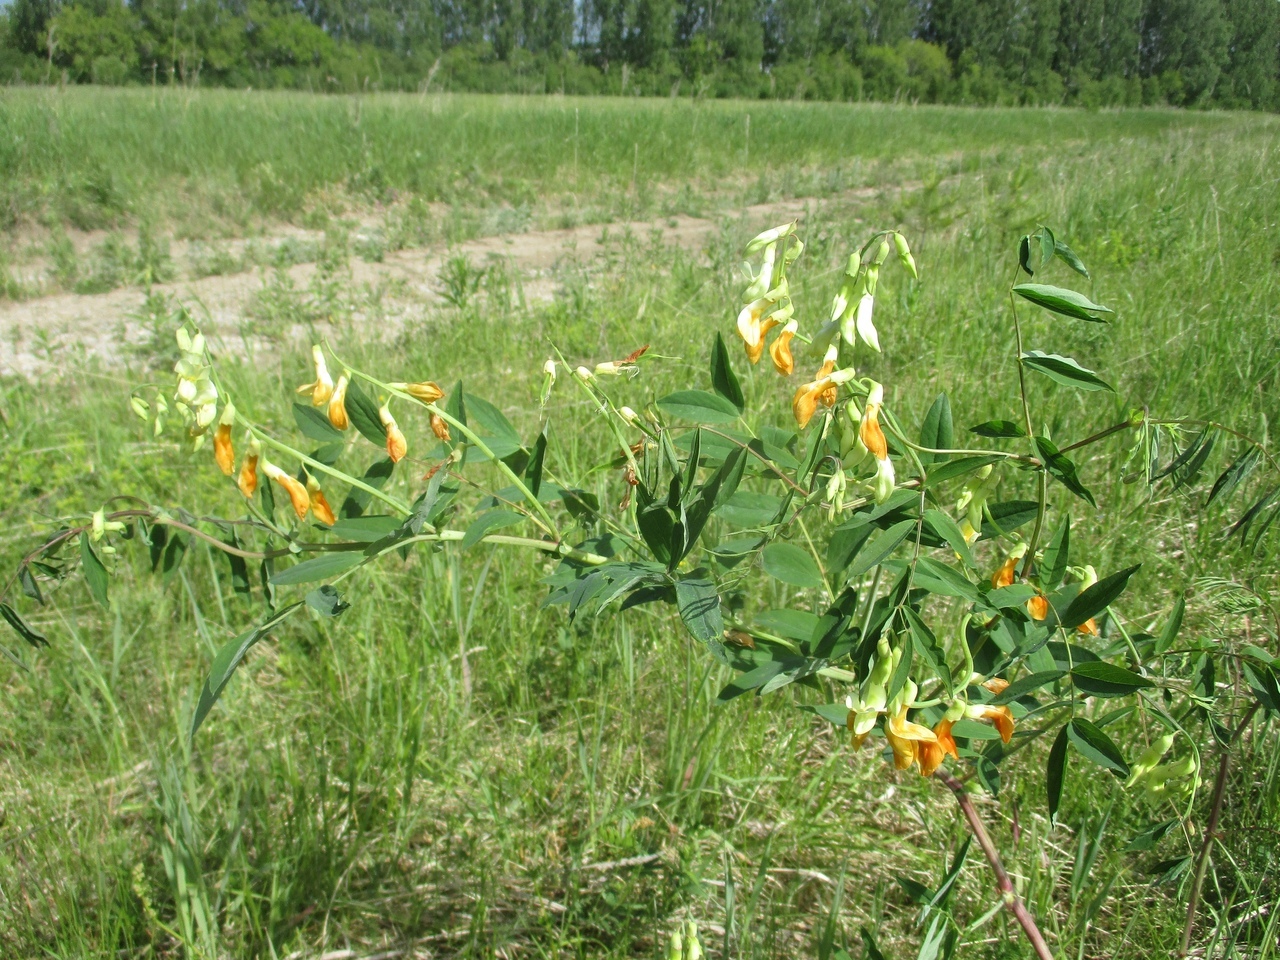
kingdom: Plantae
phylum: Tracheophyta
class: Magnoliopsida
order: Fabales
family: Fabaceae
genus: Lathyrus
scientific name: Lathyrus gmelinii
